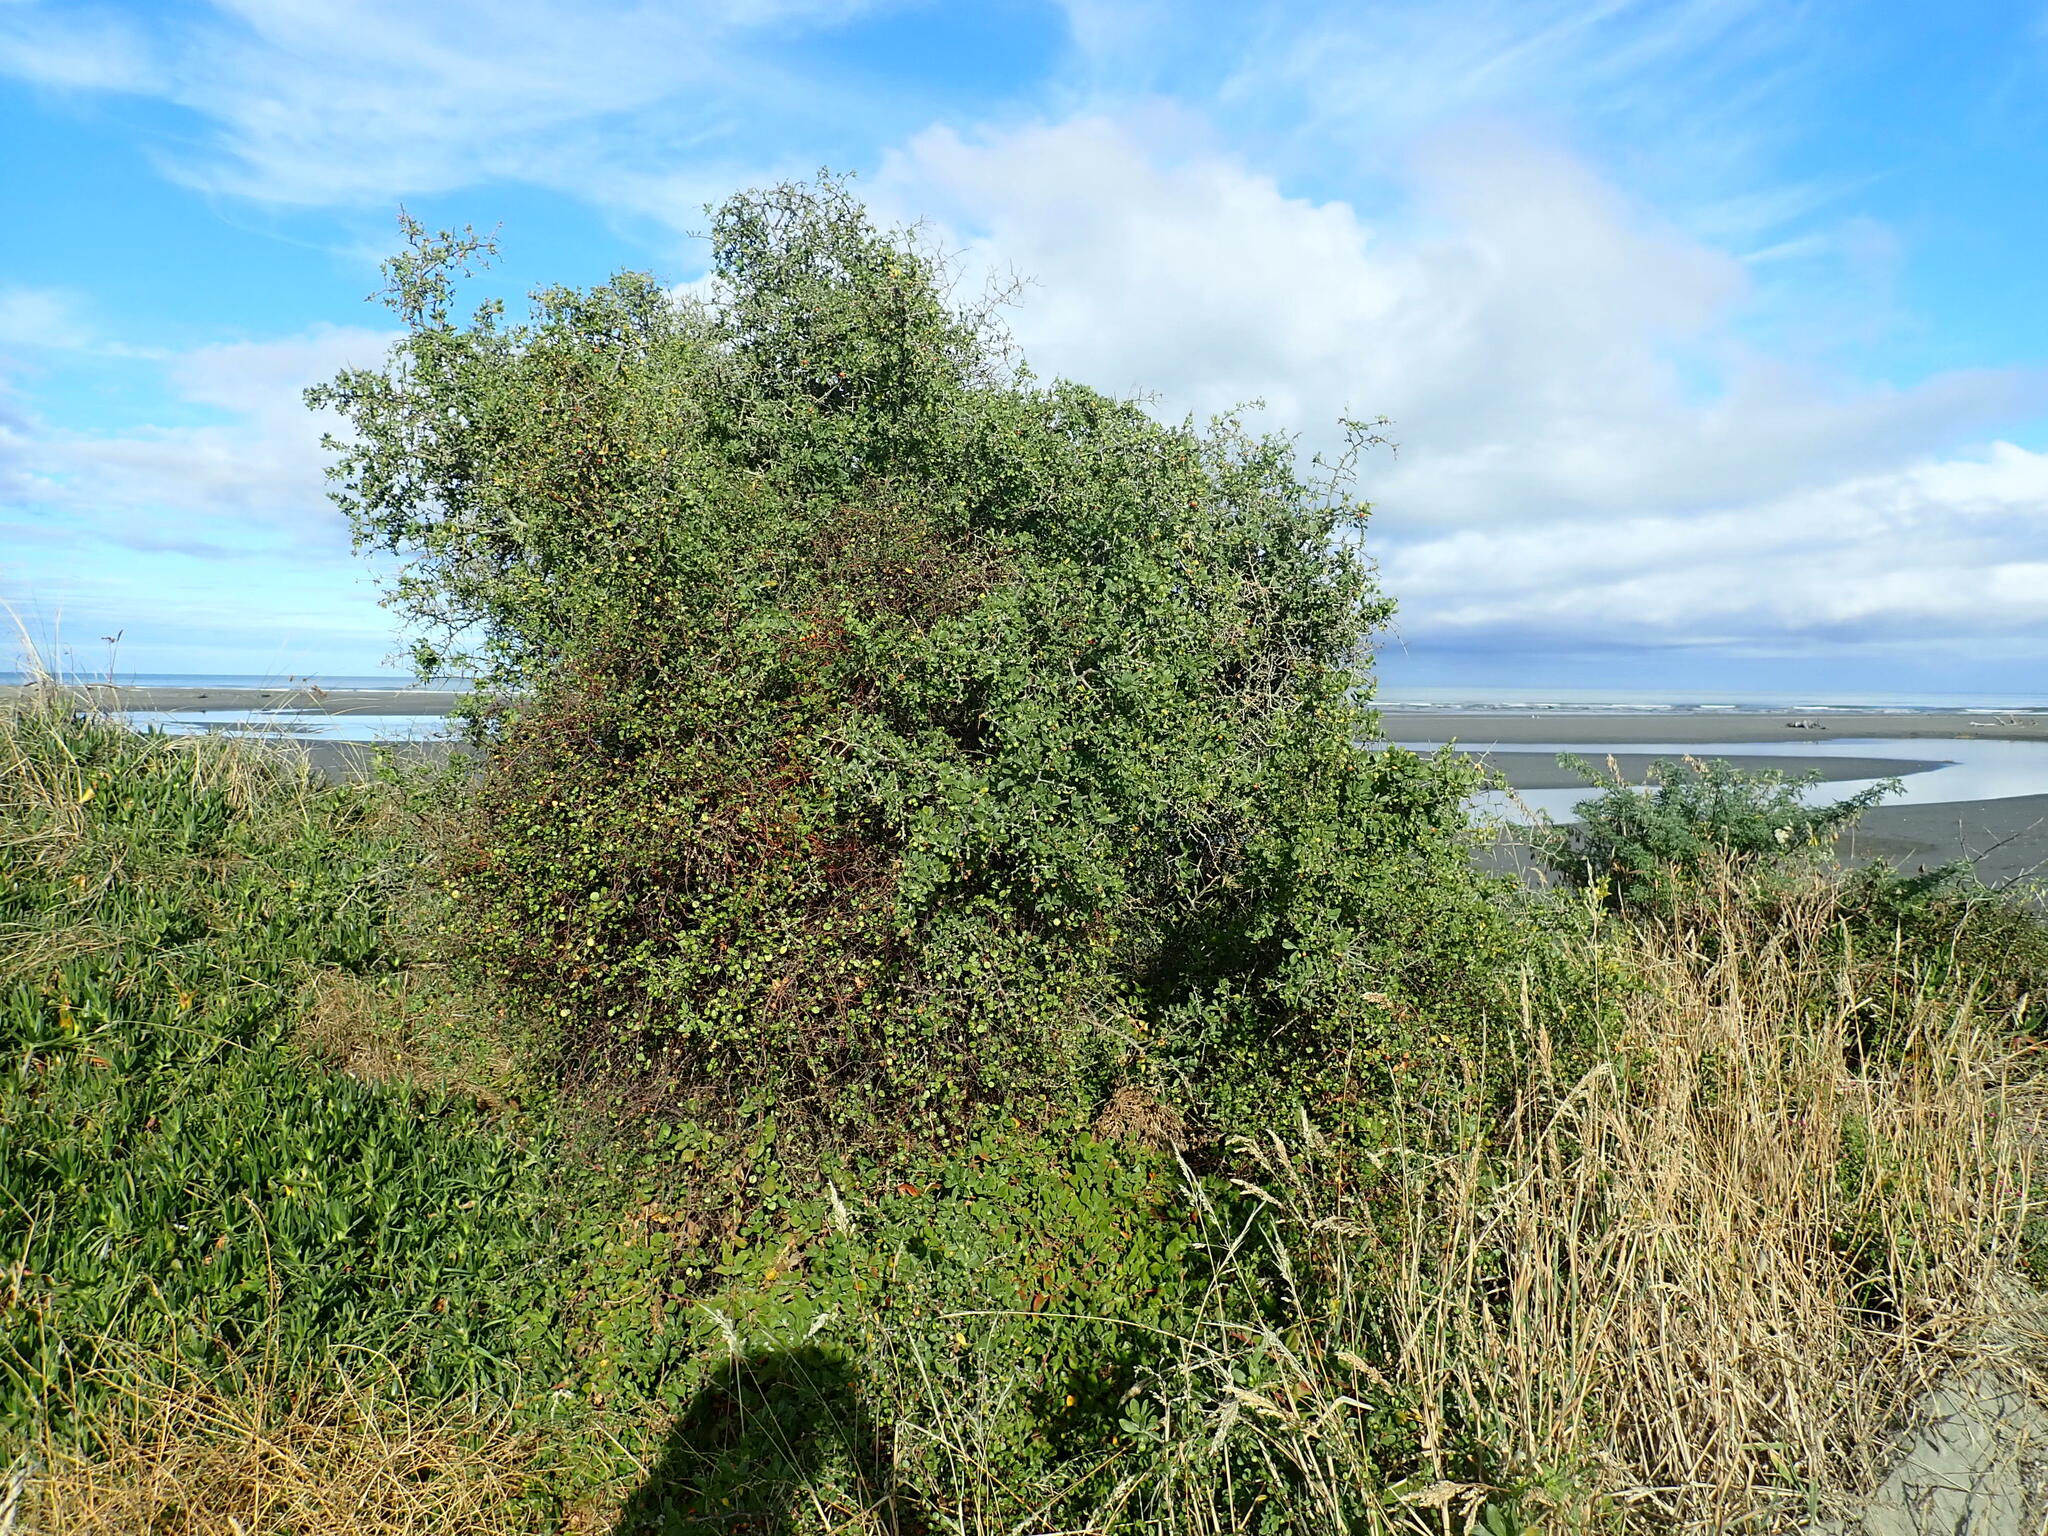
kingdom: Plantae
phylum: Tracheophyta
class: Magnoliopsida
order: Solanales
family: Solanaceae
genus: Lycium
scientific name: Lycium ferocissimum
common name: African boxthorn
